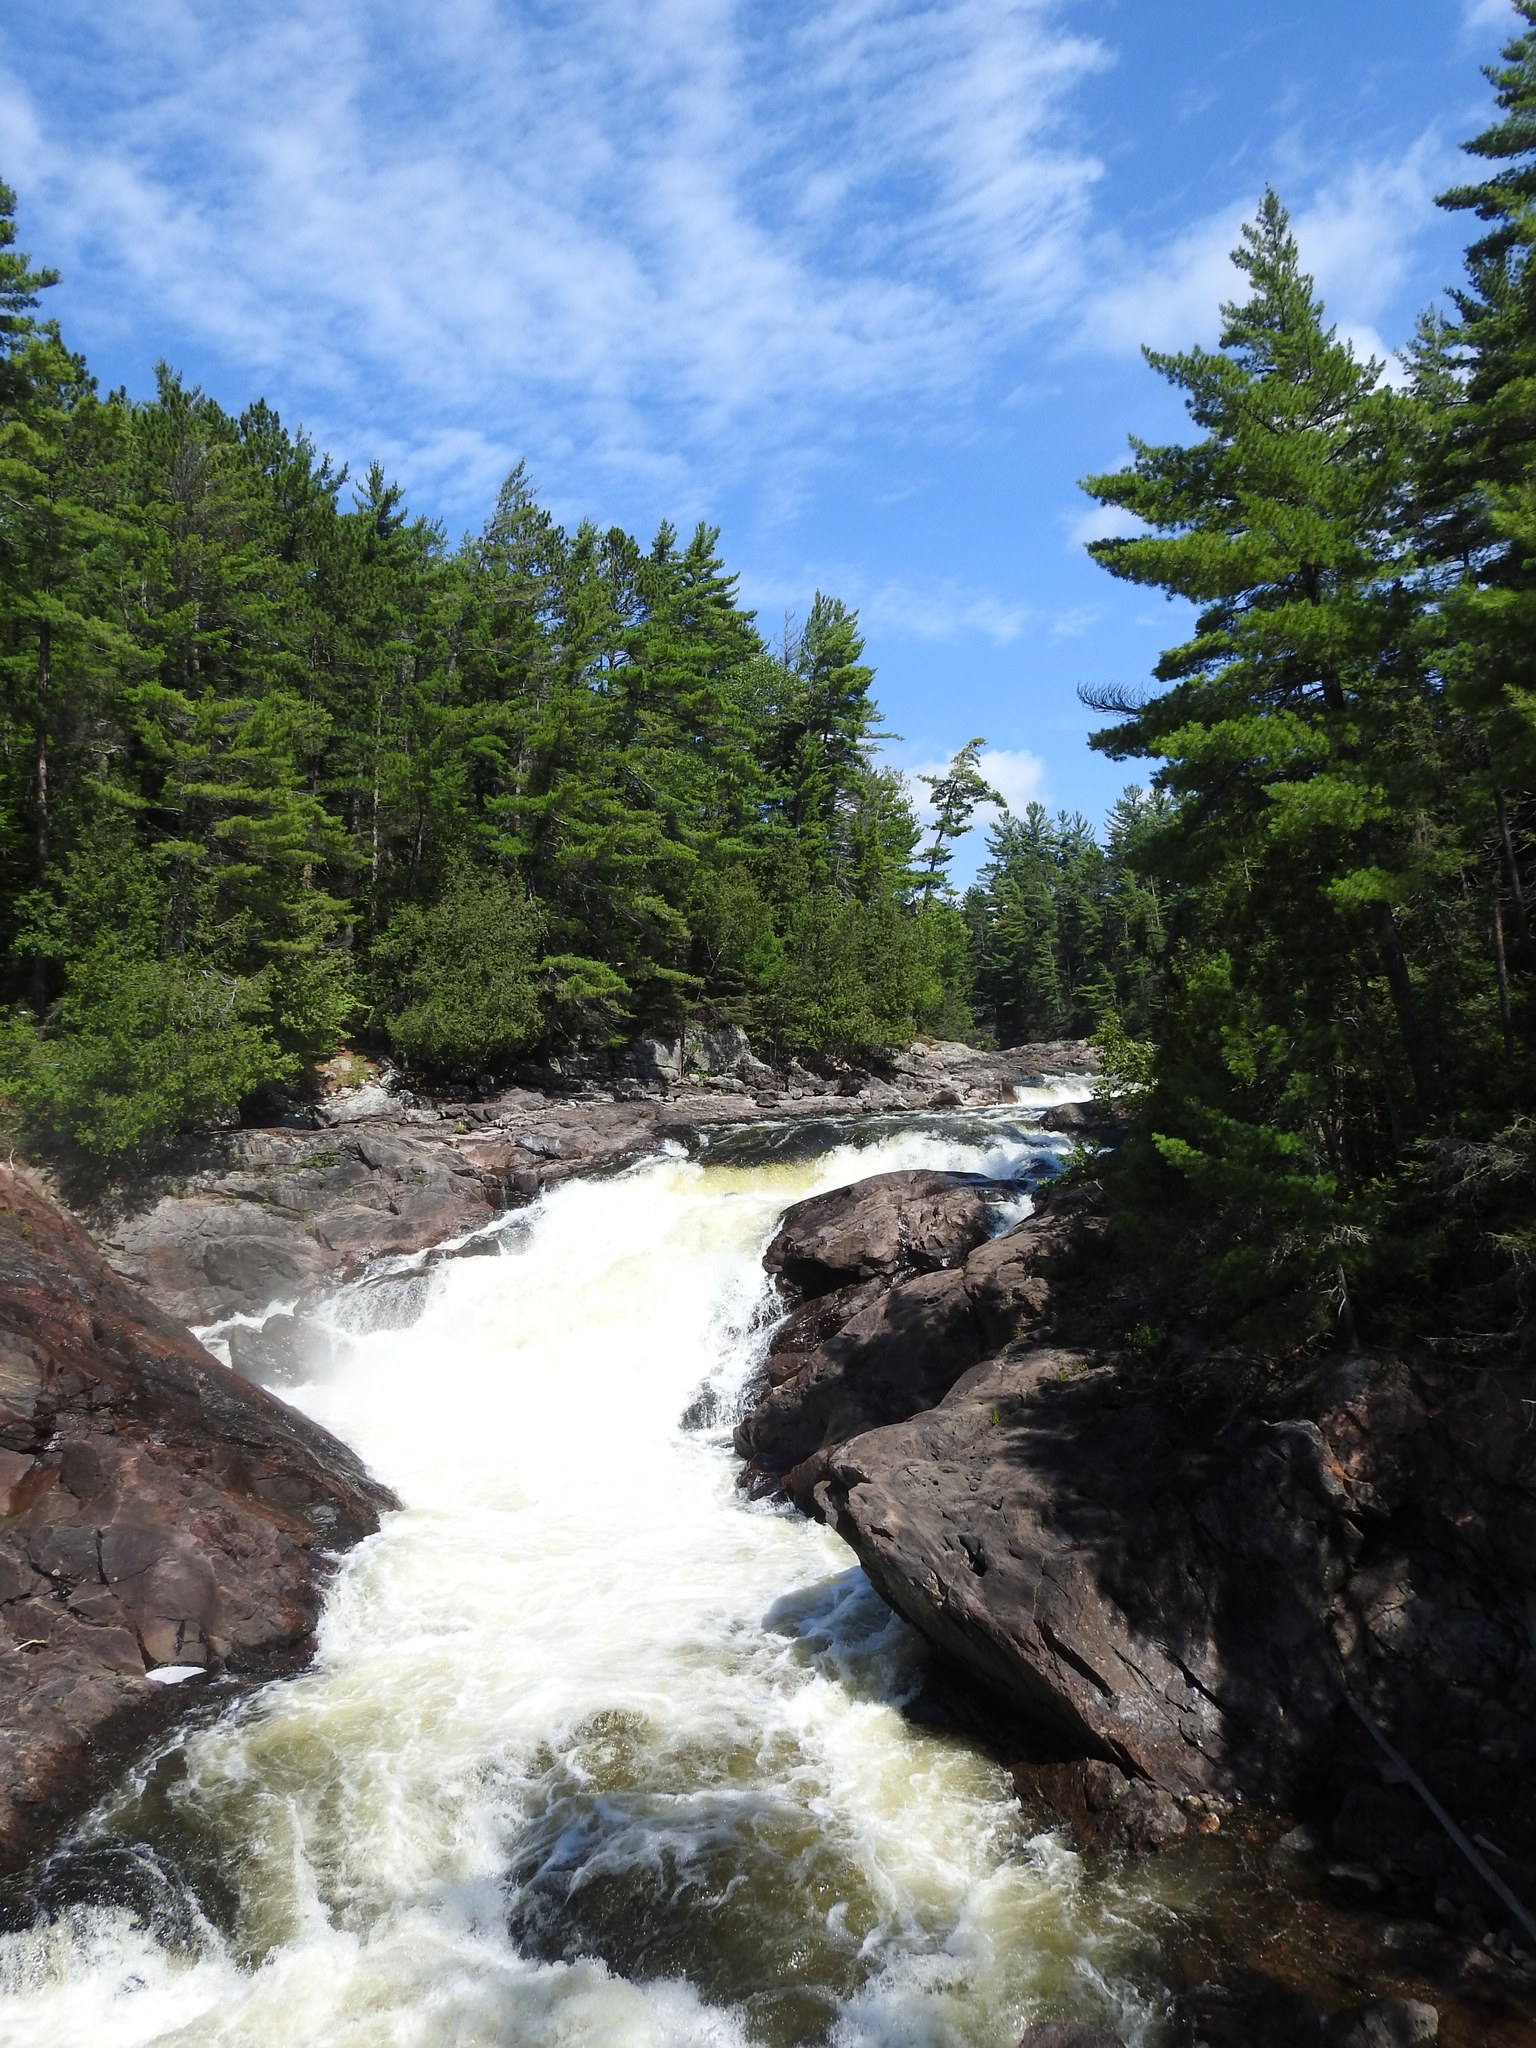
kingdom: Plantae
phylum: Tracheophyta
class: Pinopsida
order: Pinales
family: Pinaceae
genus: Pinus
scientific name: Pinus strobus
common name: Weymouth pine
